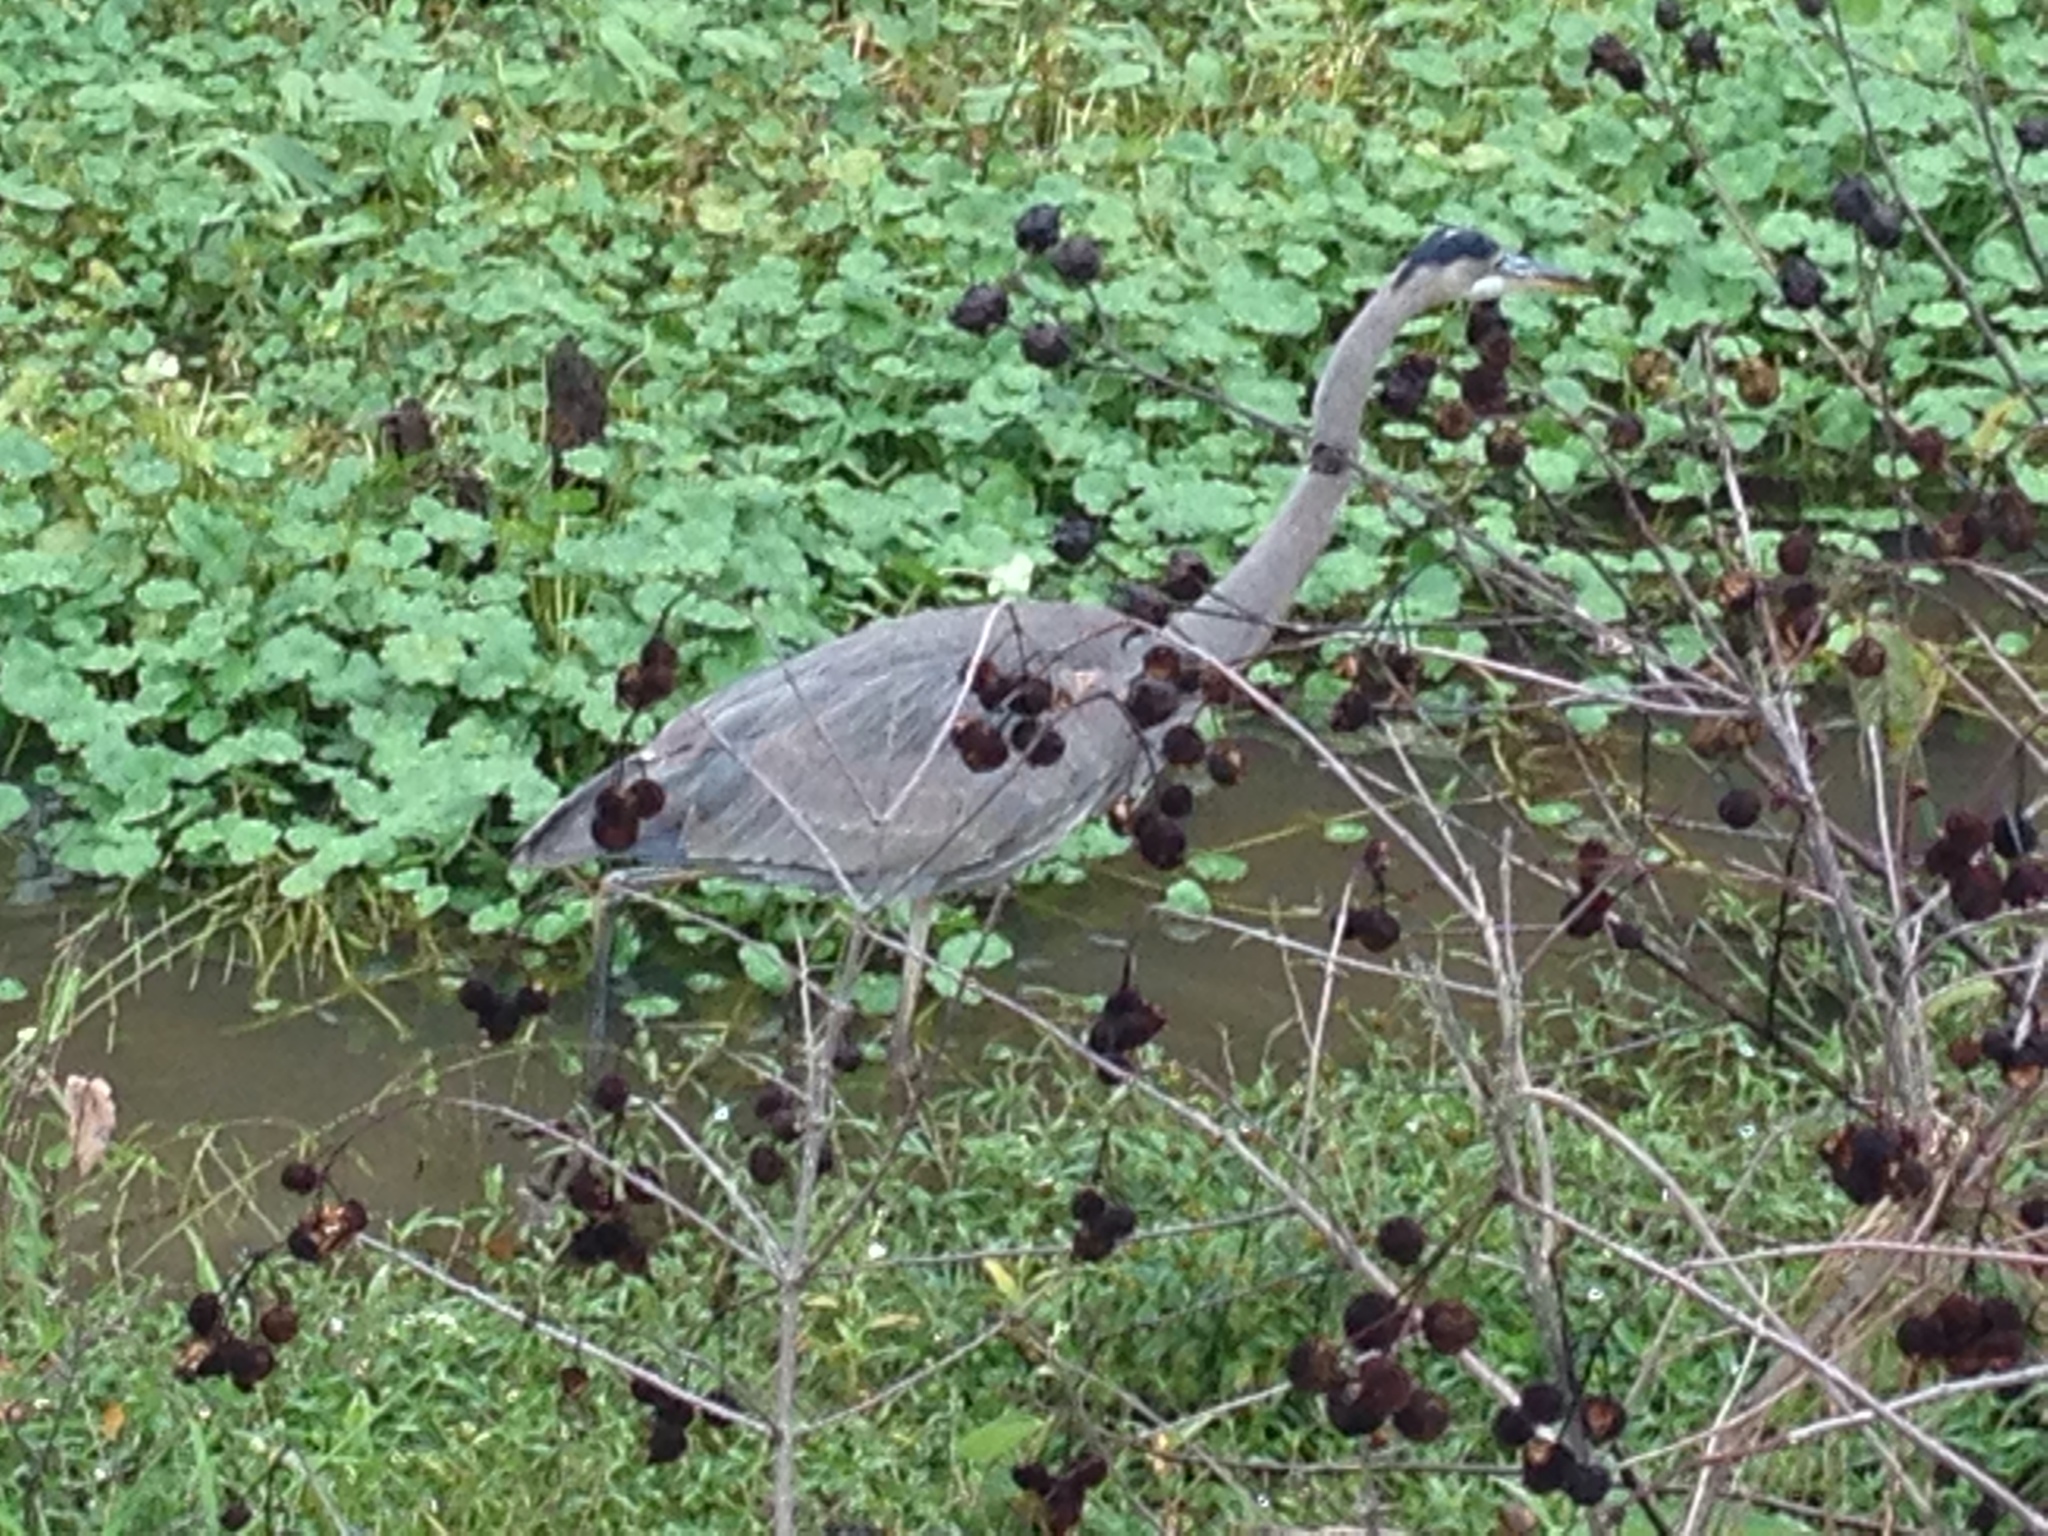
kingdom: Animalia
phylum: Chordata
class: Aves
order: Pelecaniformes
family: Ardeidae
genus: Ardea
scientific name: Ardea herodias
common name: Great blue heron
